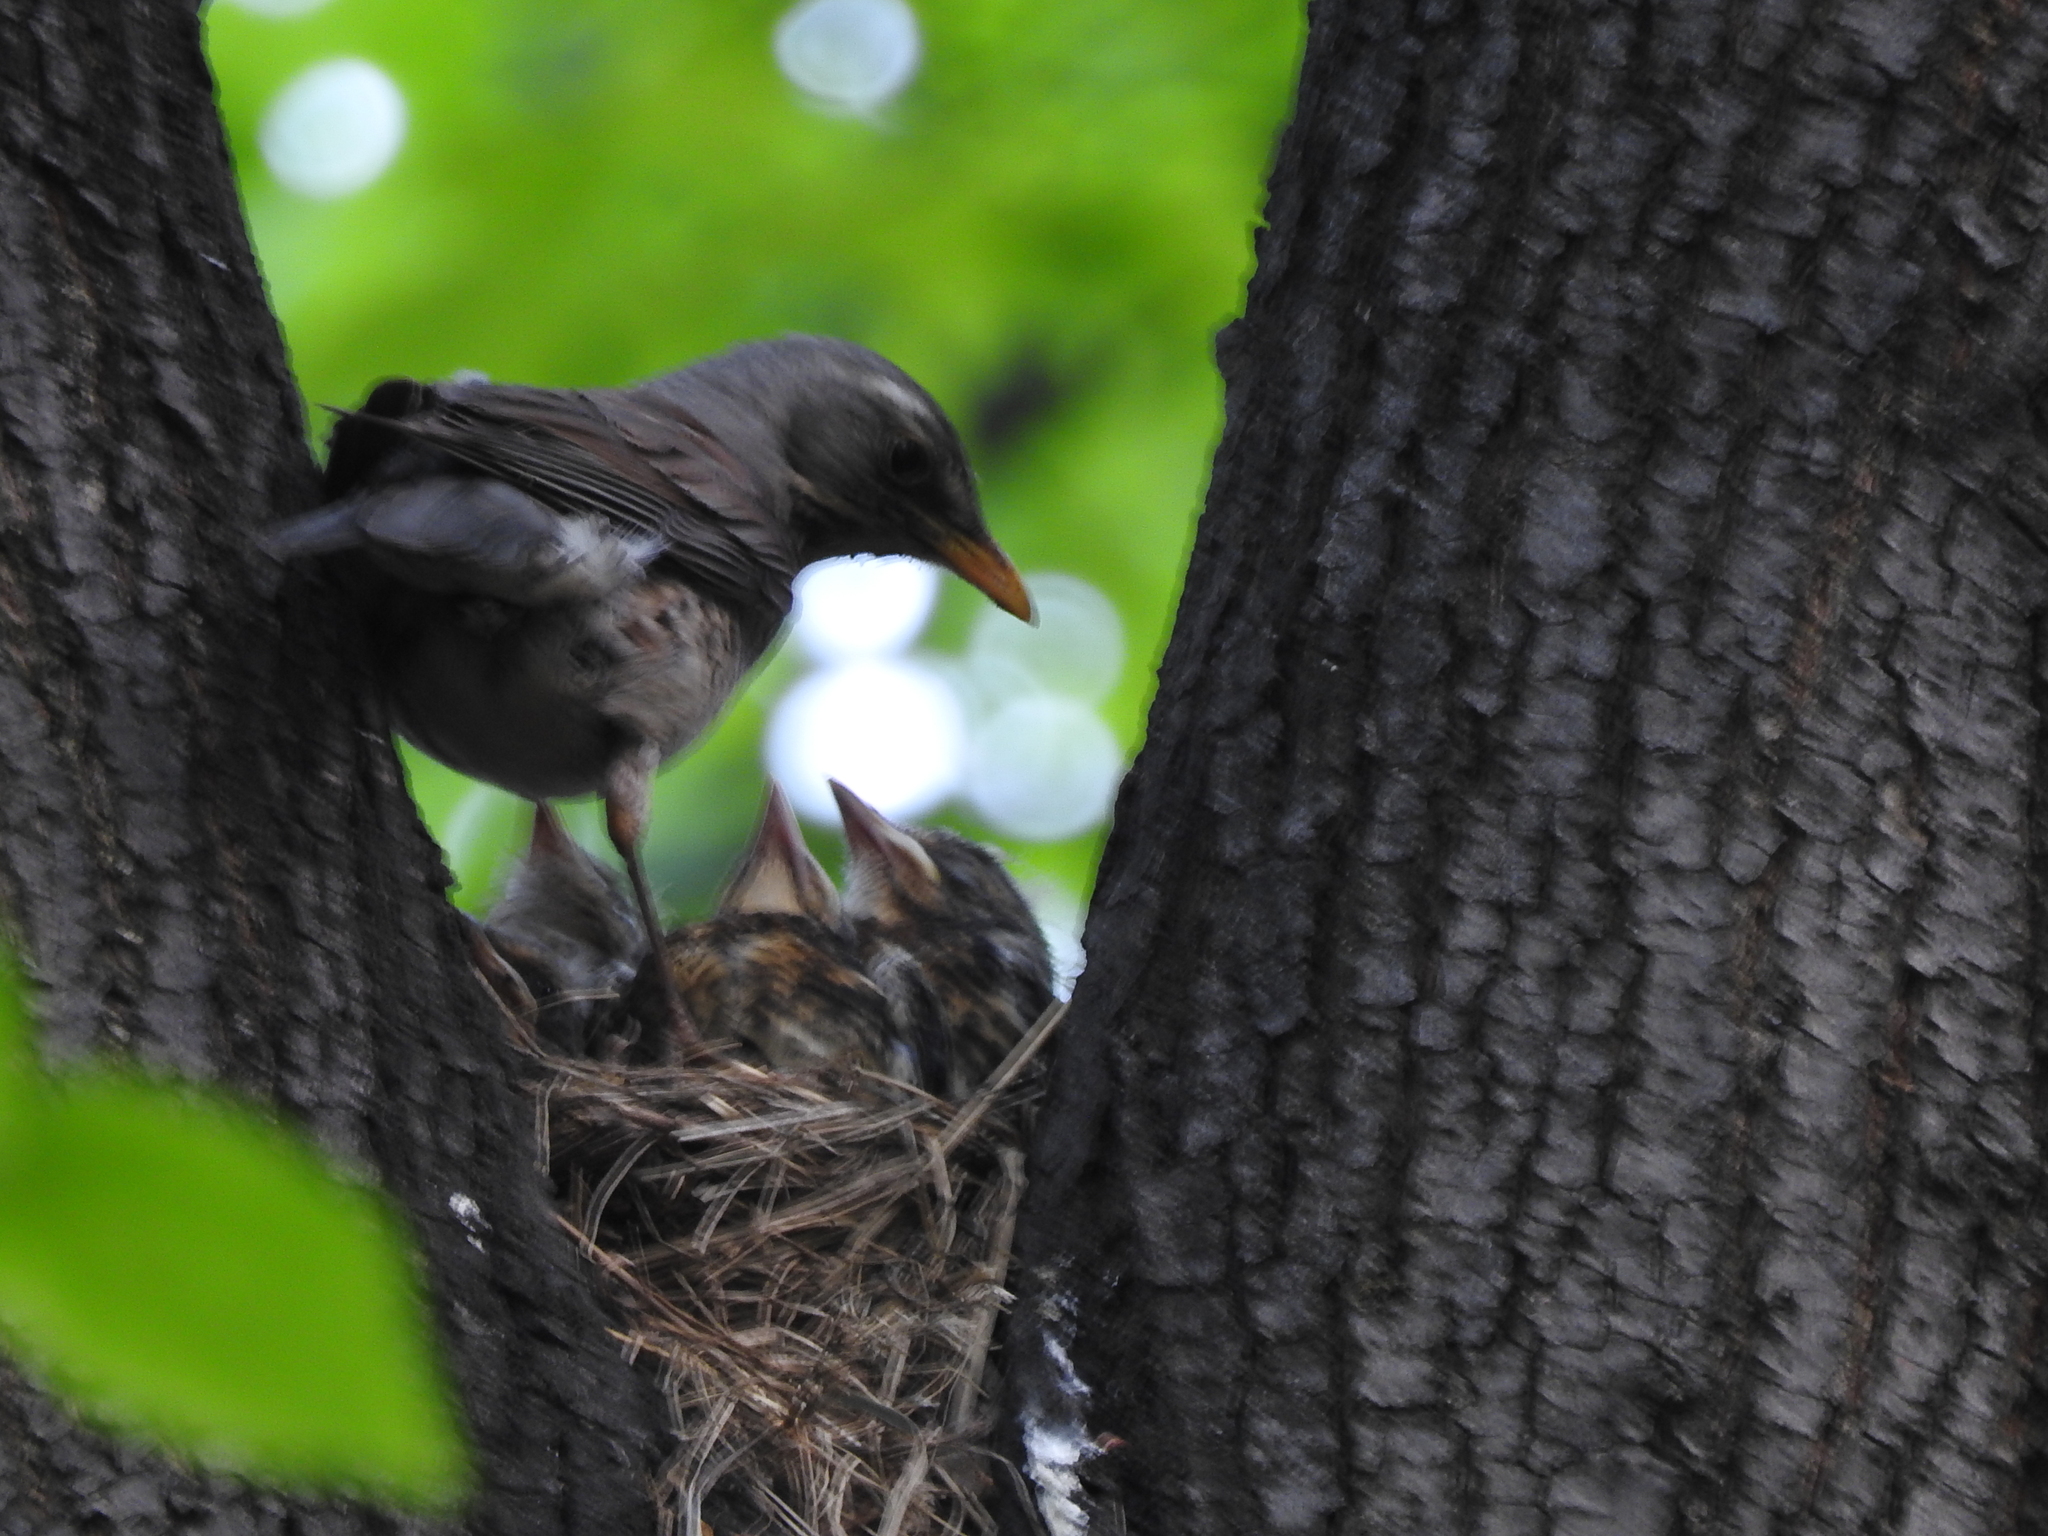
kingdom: Animalia
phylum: Chordata
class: Aves
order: Passeriformes
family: Turdidae
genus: Turdus
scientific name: Turdus pilaris
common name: Fieldfare
